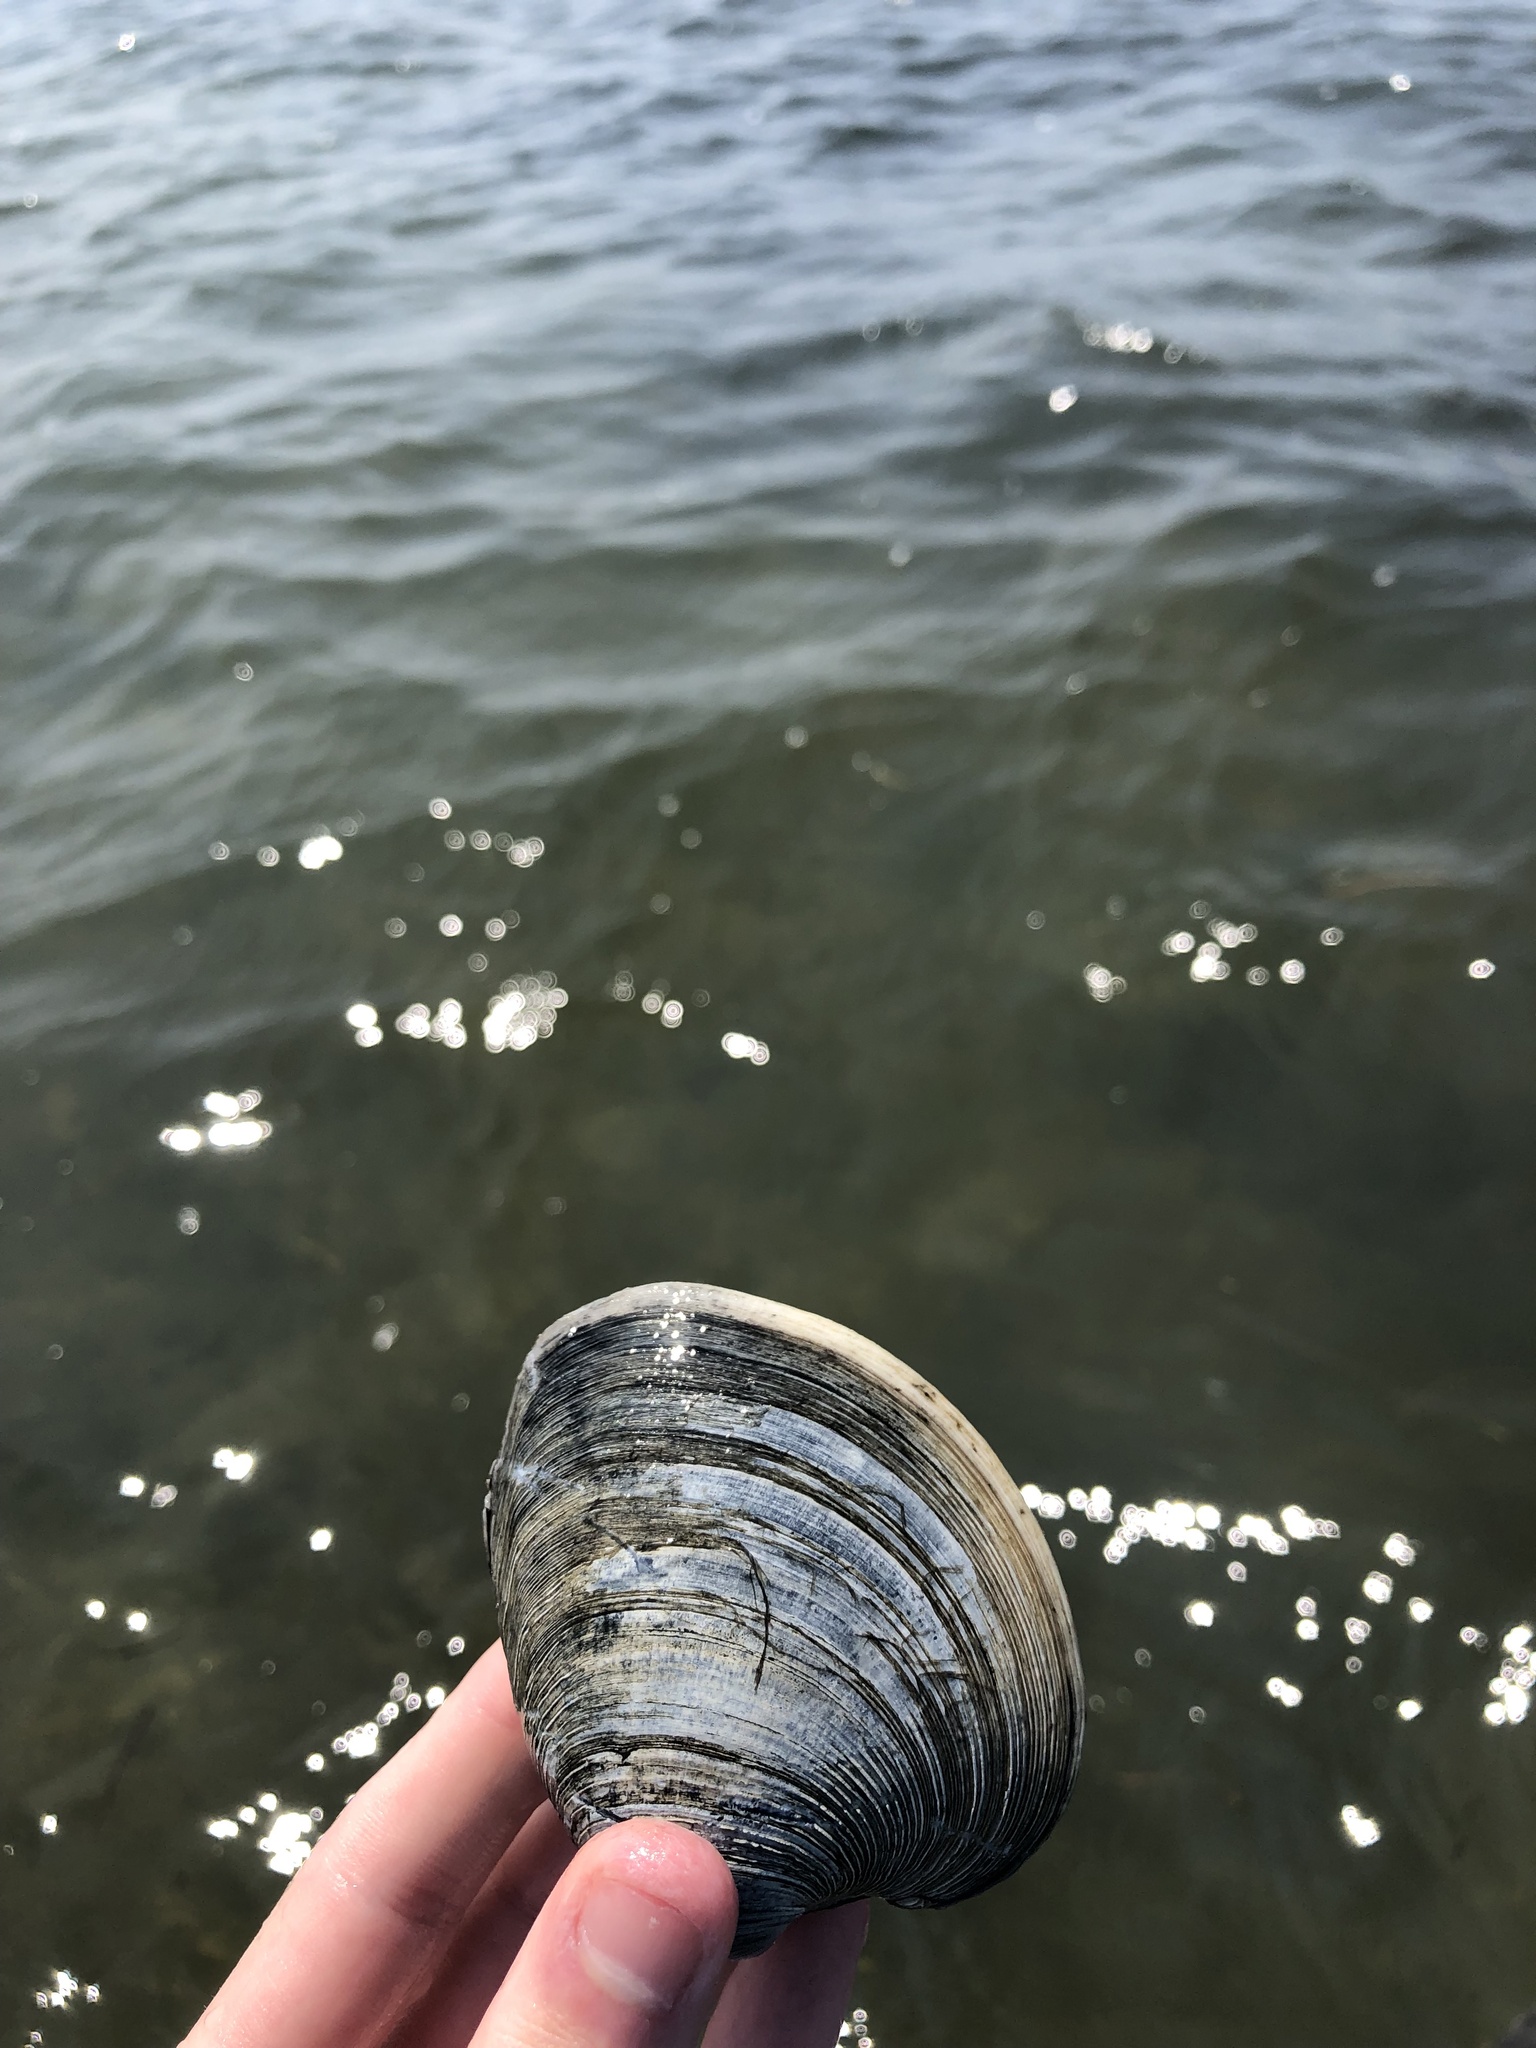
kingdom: Animalia
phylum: Mollusca
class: Bivalvia
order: Venerida
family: Veneridae
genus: Mercenaria
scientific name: Mercenaria mercenaria
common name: American hard-shelled clam
